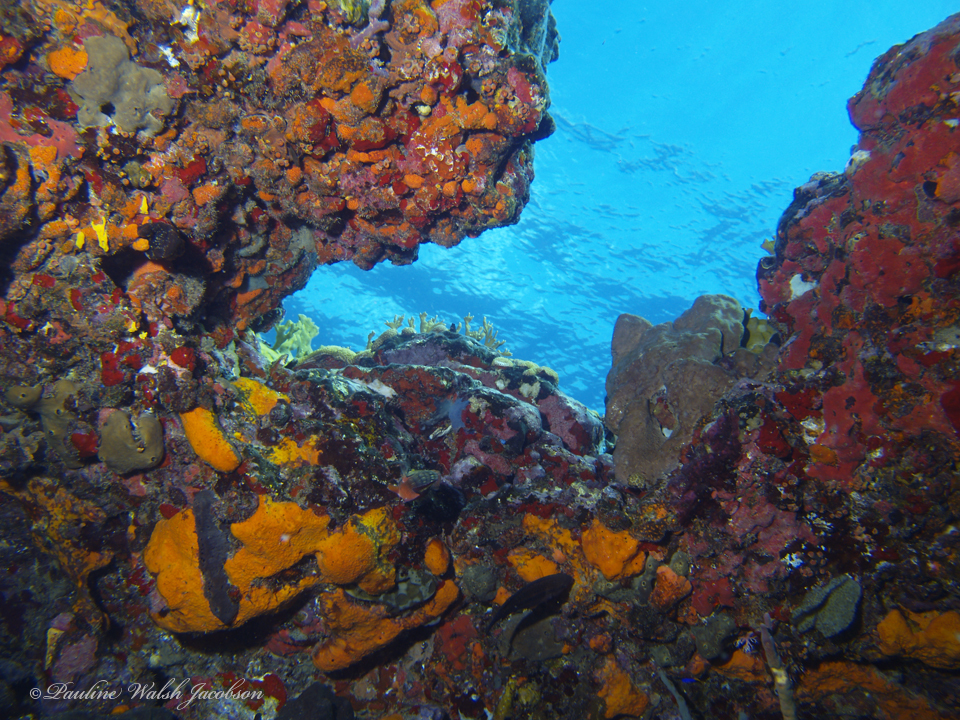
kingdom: Animalia
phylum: Porifera
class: Demospongiae
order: Agelasida
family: Agelasidae
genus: Agelas
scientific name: Agelas clathrodes
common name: Orange elephant ear sponge
